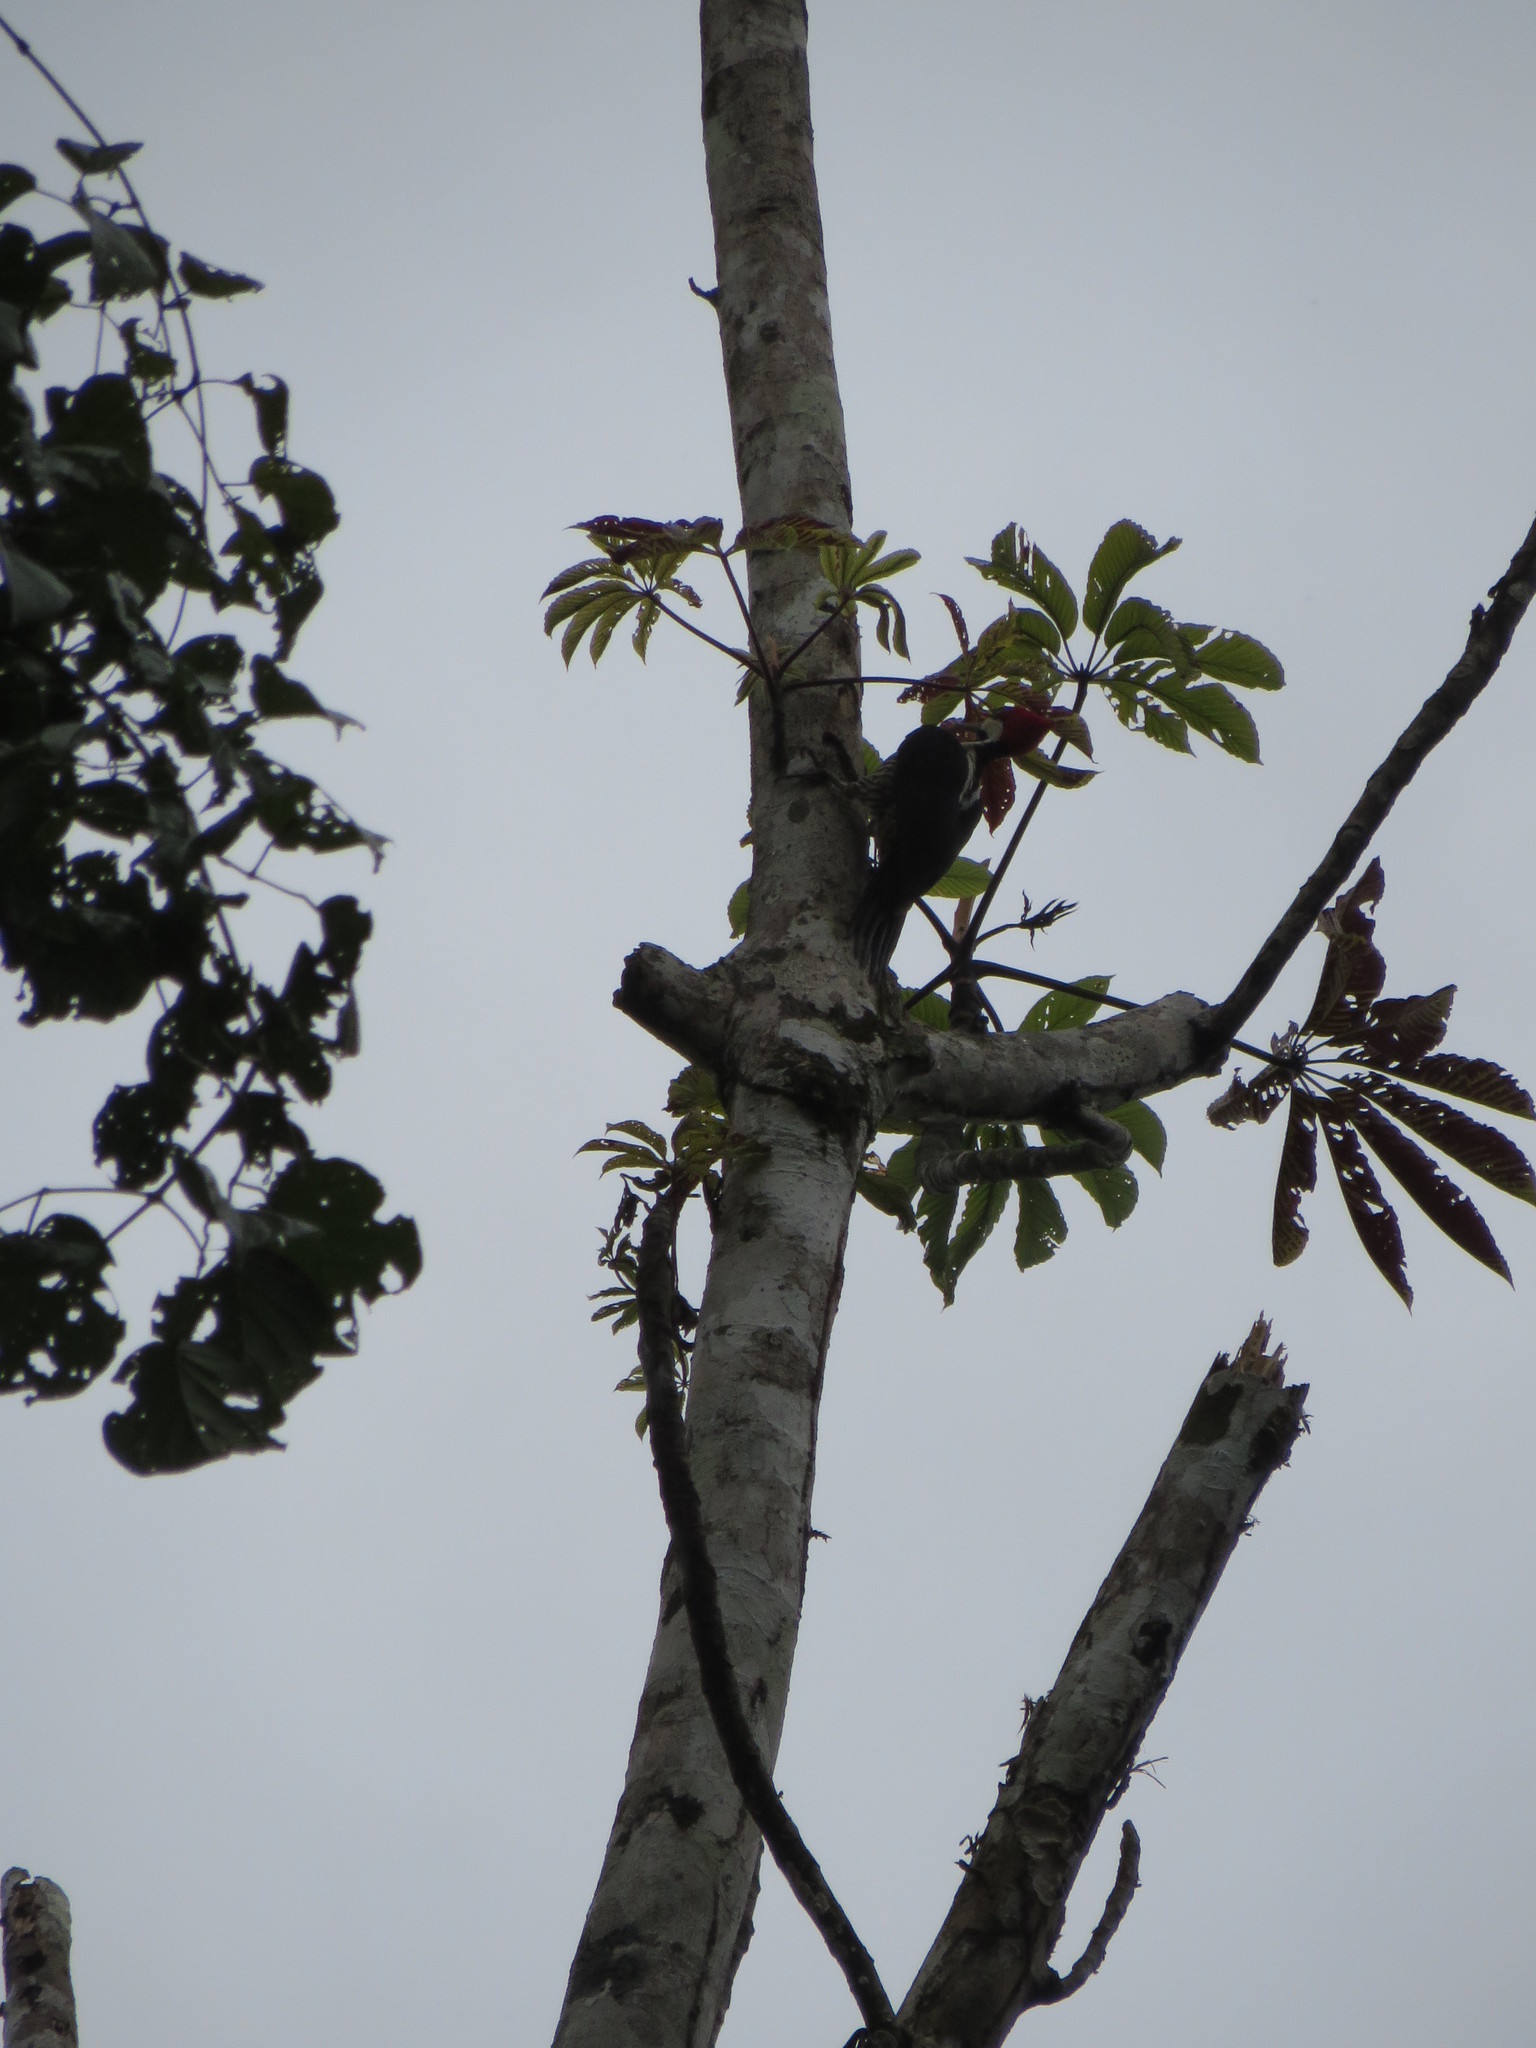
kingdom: Animalia
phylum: Chordata
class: Aves
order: Piciformes
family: Picidae
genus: Campephilus
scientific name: Campephilus melanoleucos
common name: Crimson-crested woodpecker
